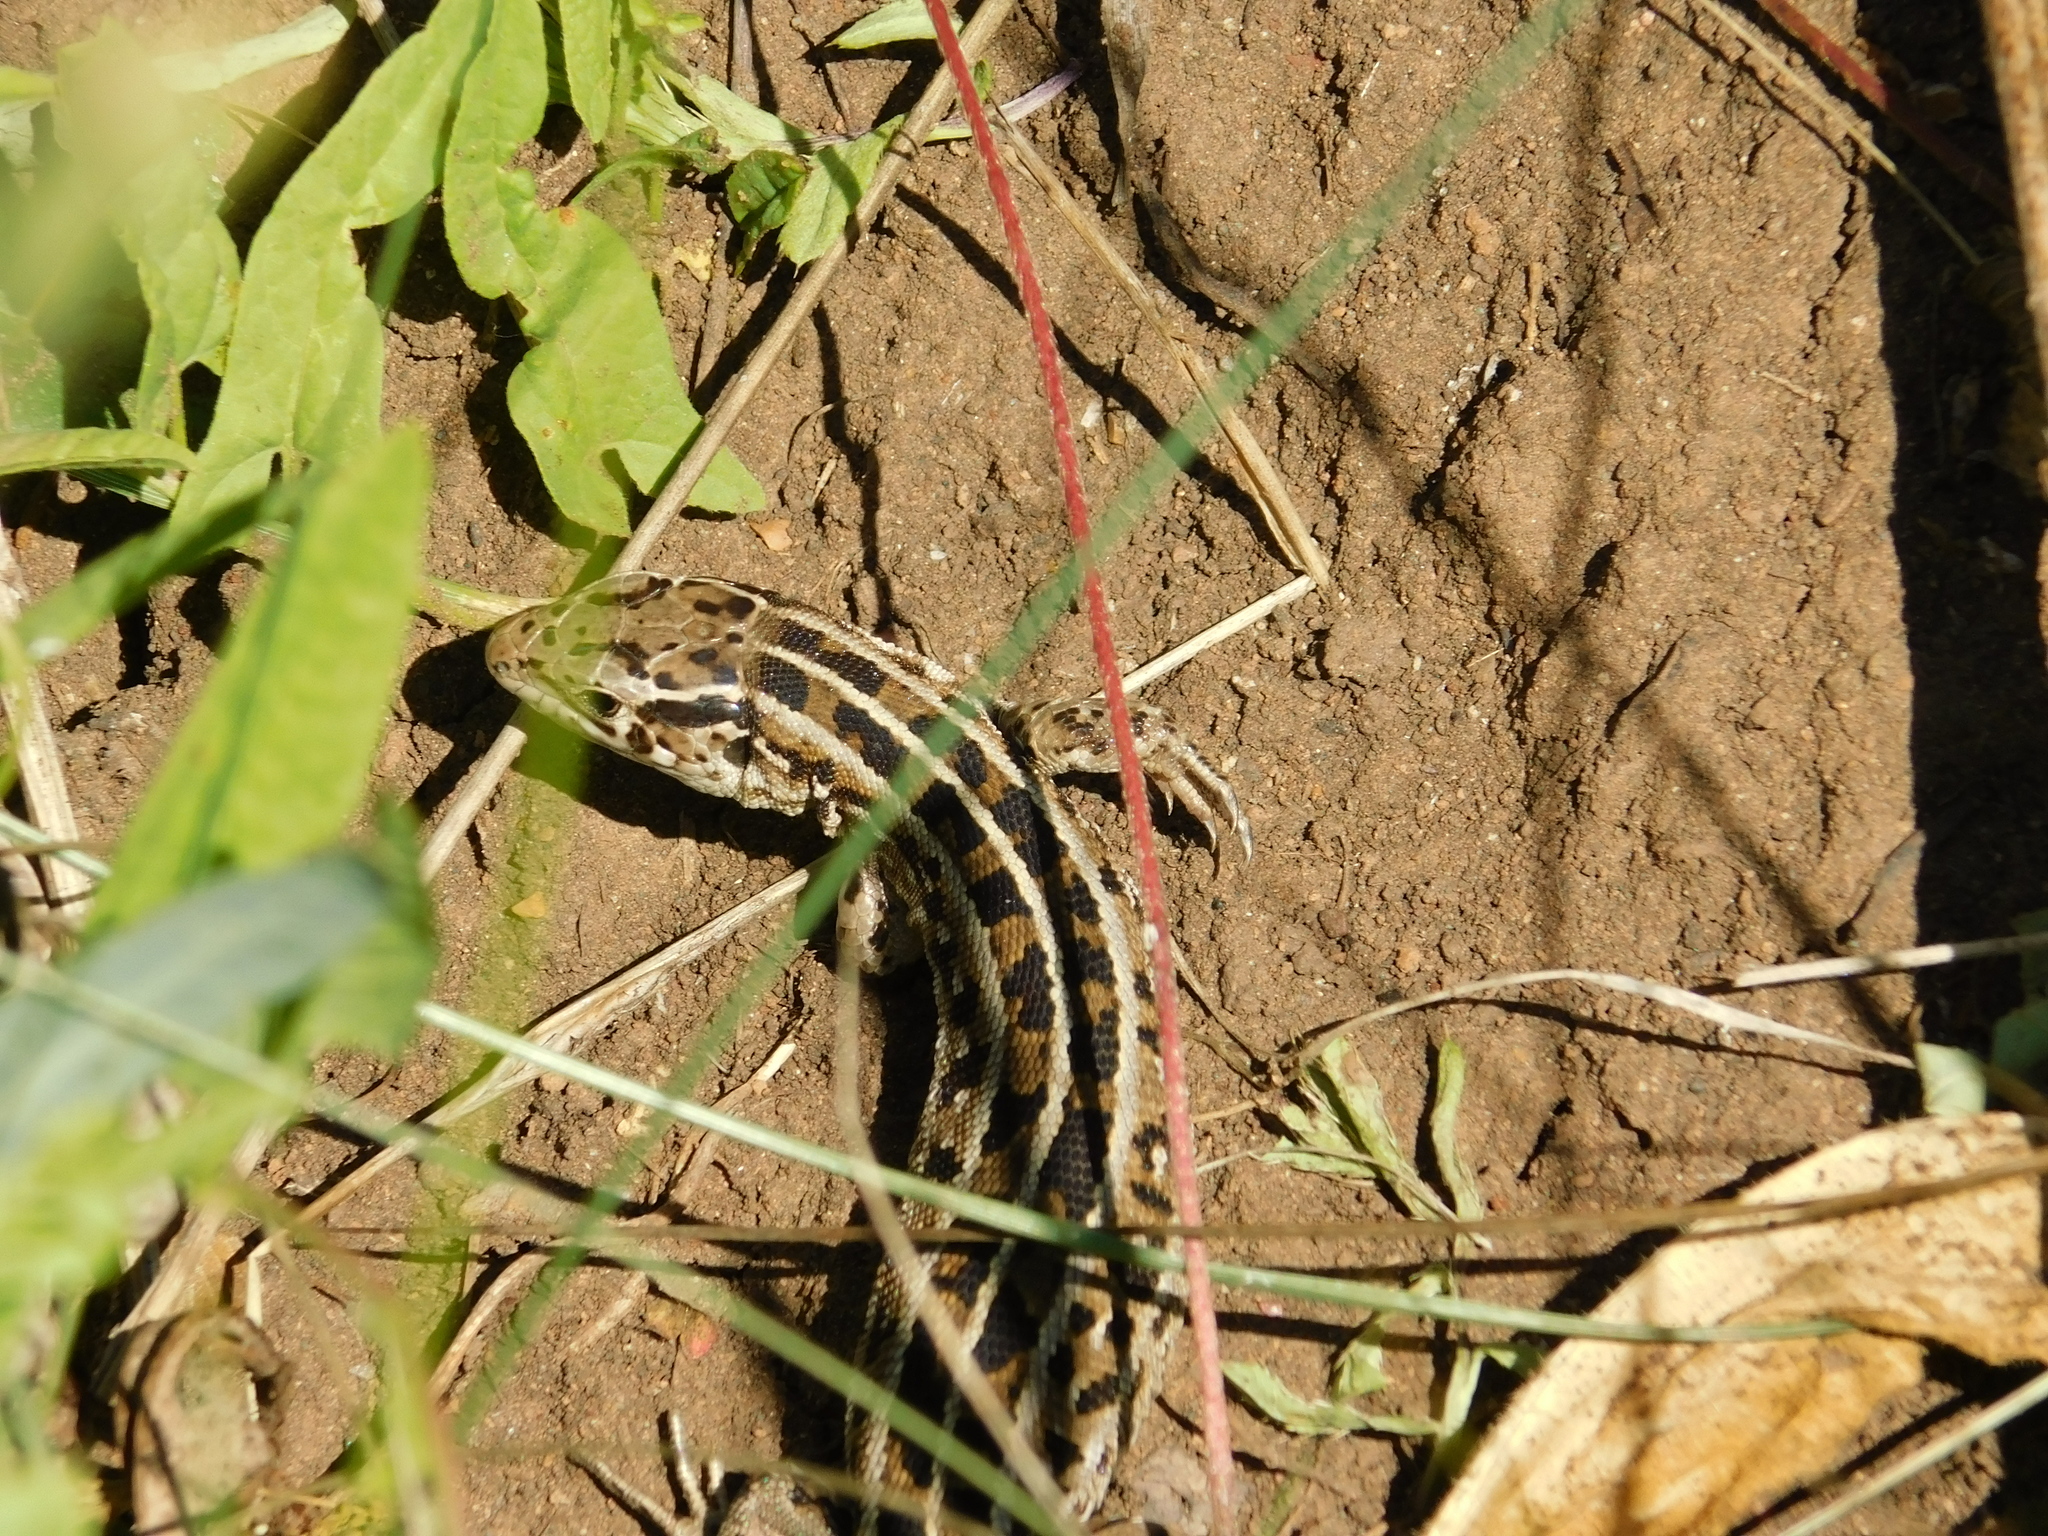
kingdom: Animalia
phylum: Chordata
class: Squamata
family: Lacertidae
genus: Lacerta
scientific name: Lacerta agilis
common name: Sand lizard
